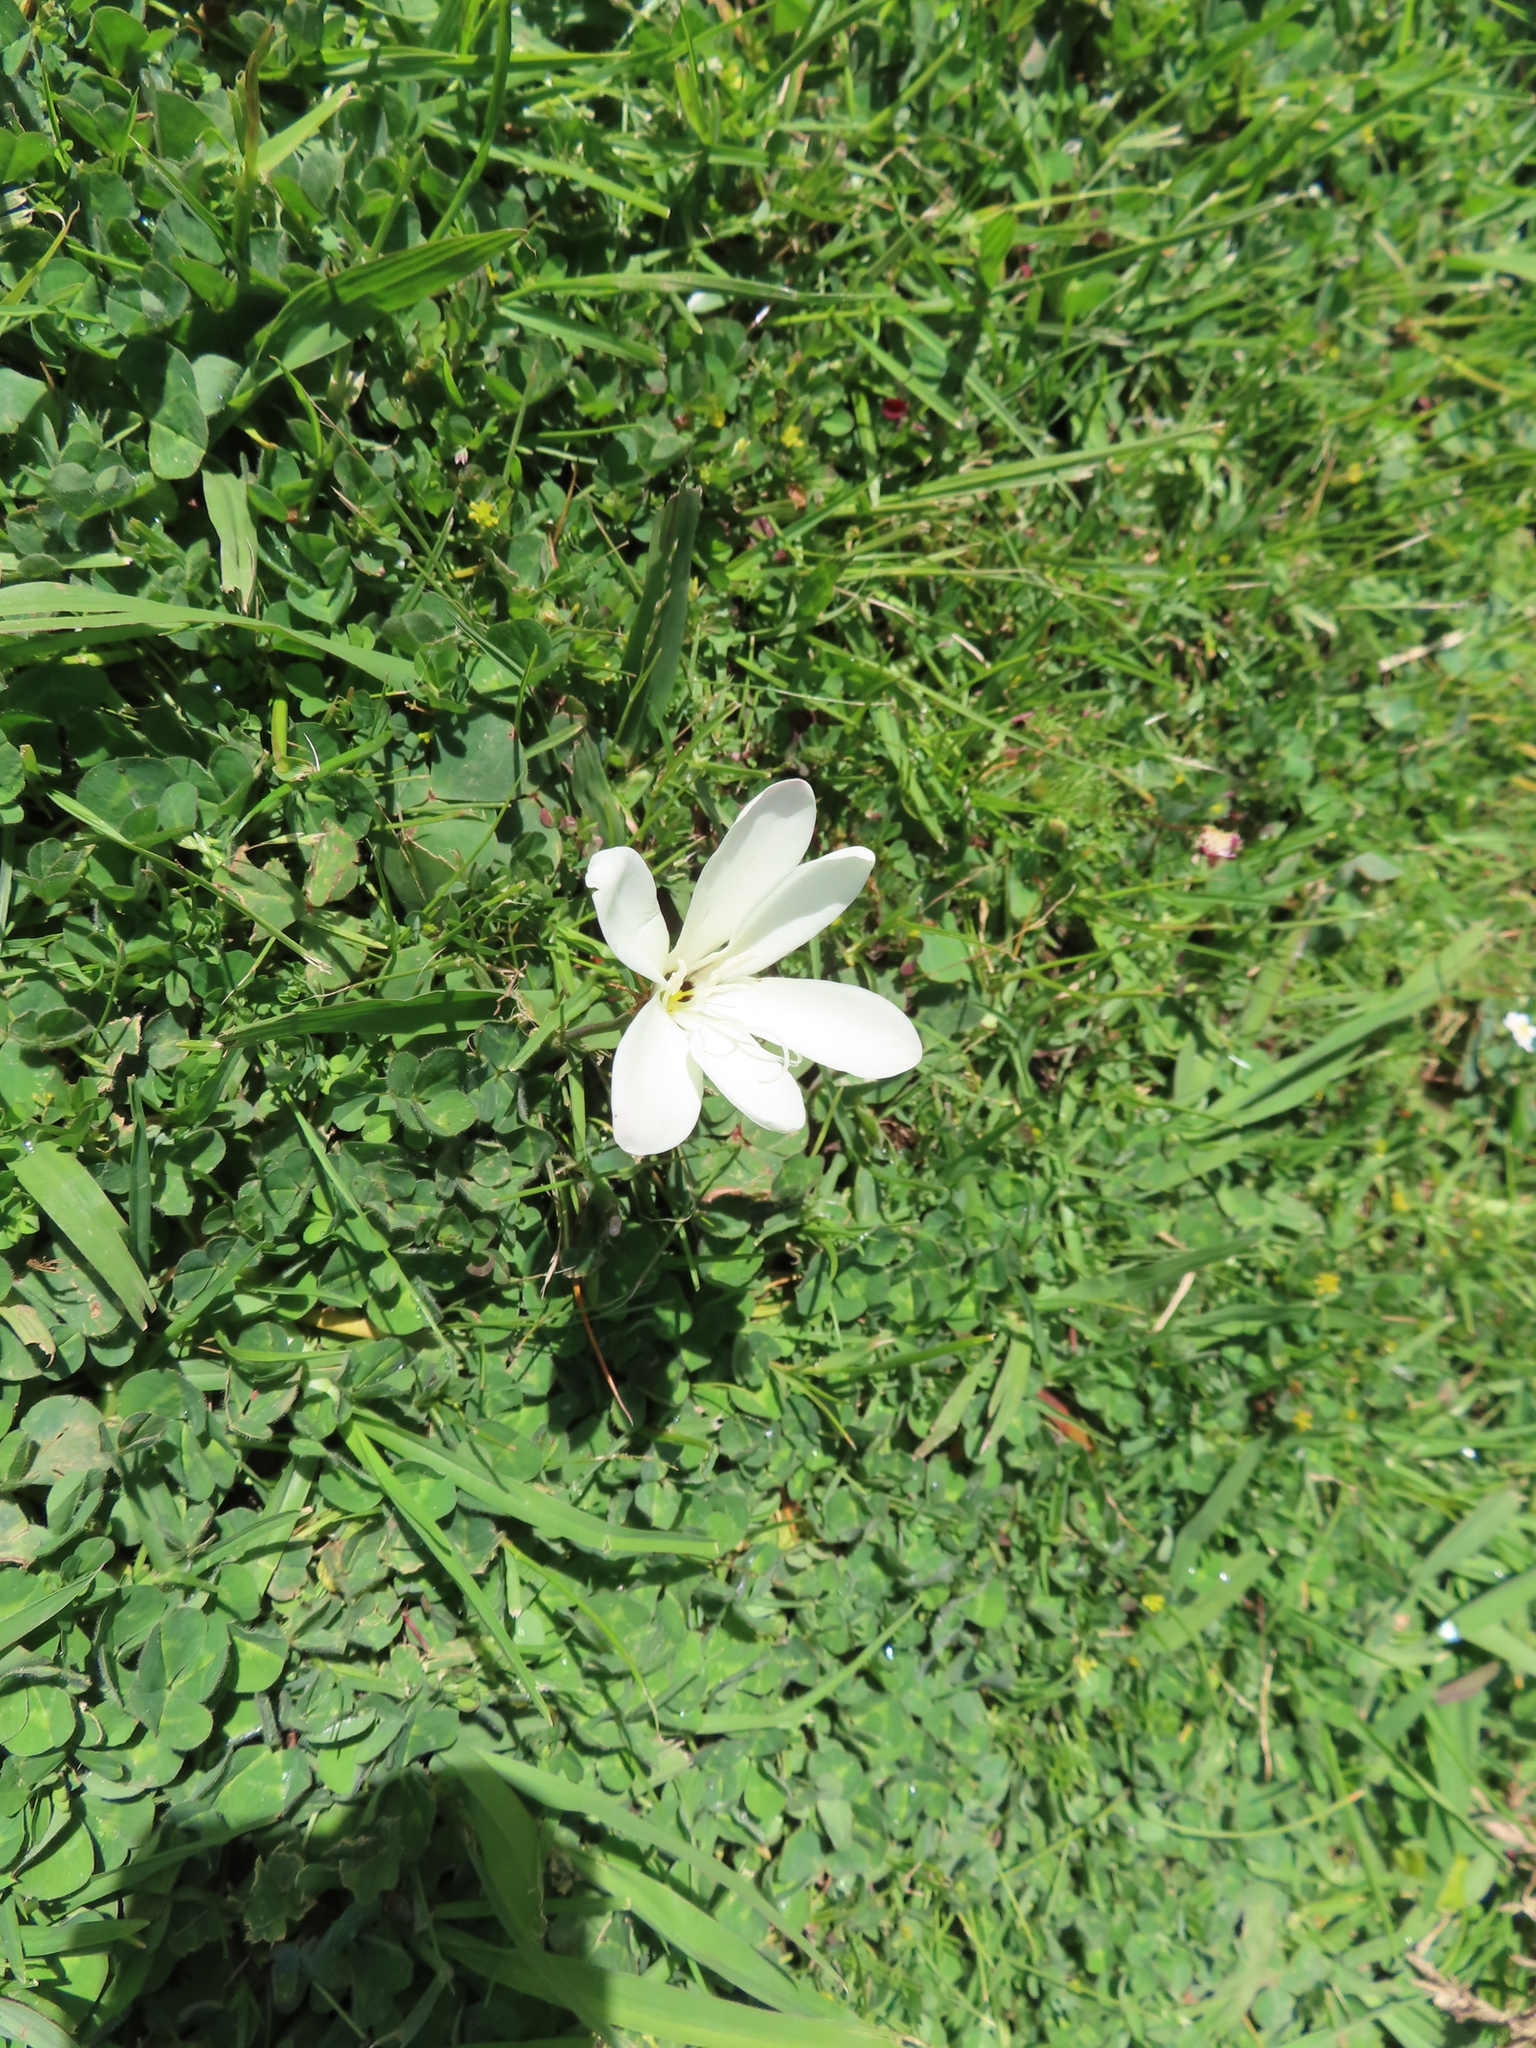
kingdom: Plantae
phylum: Tracheophyta
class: Liliopsida
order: Asparagales
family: Iridaceae
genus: Sparaxis
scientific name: Sparaxis bulbifera
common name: Harlequin-flower
